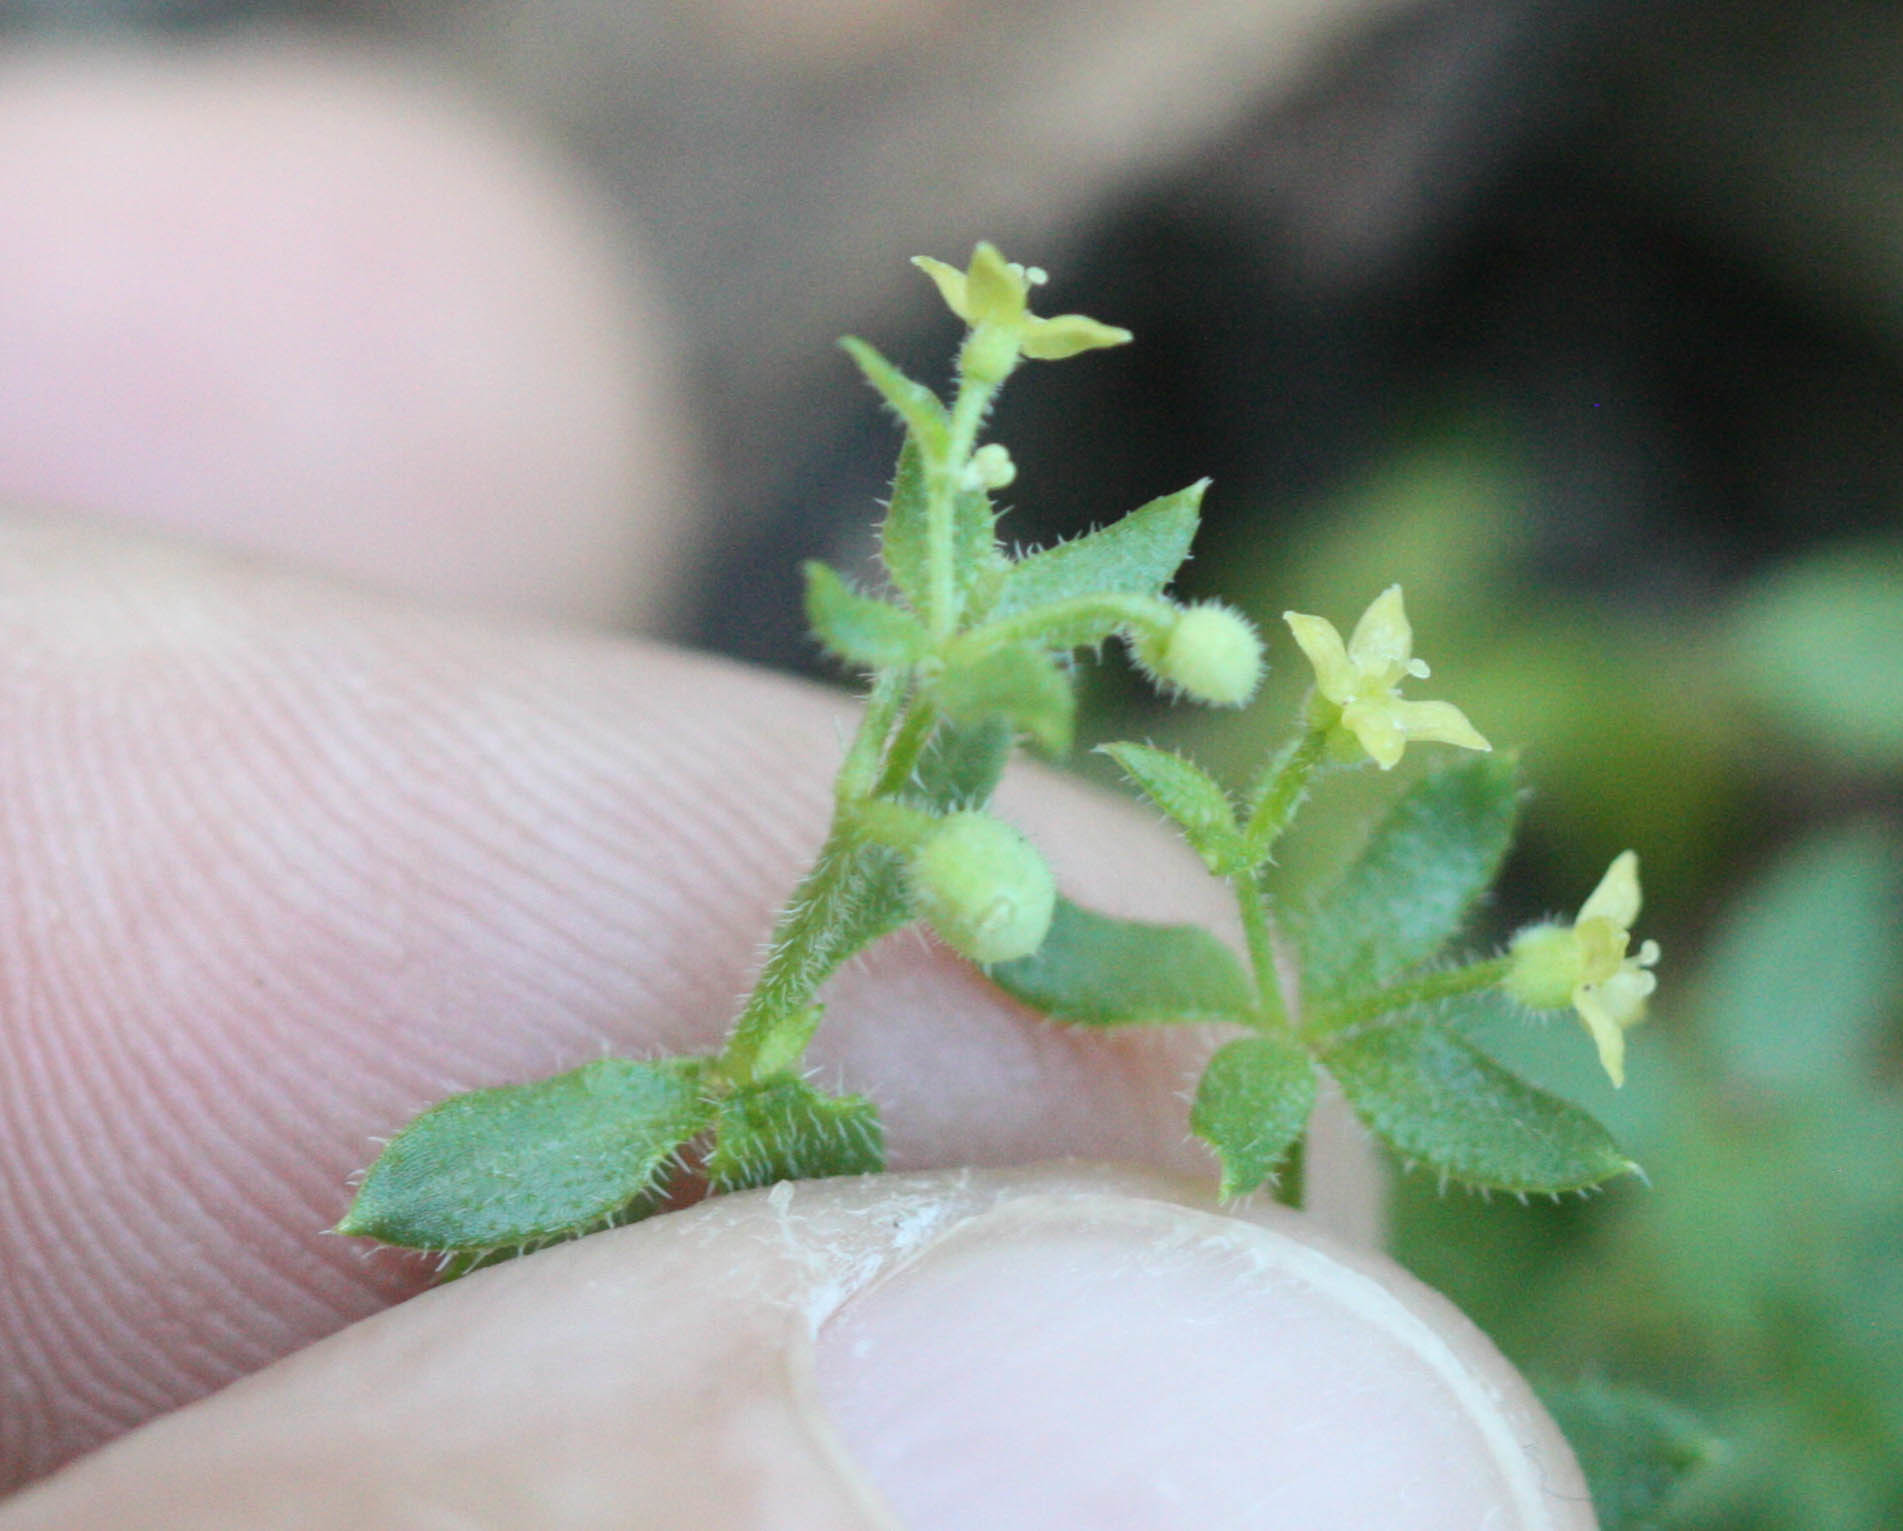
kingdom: Plantae
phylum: Tracheophyta
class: Magnoliopsida
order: Gentianales
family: Rubiaceae
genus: Galium
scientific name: Galium californicum
